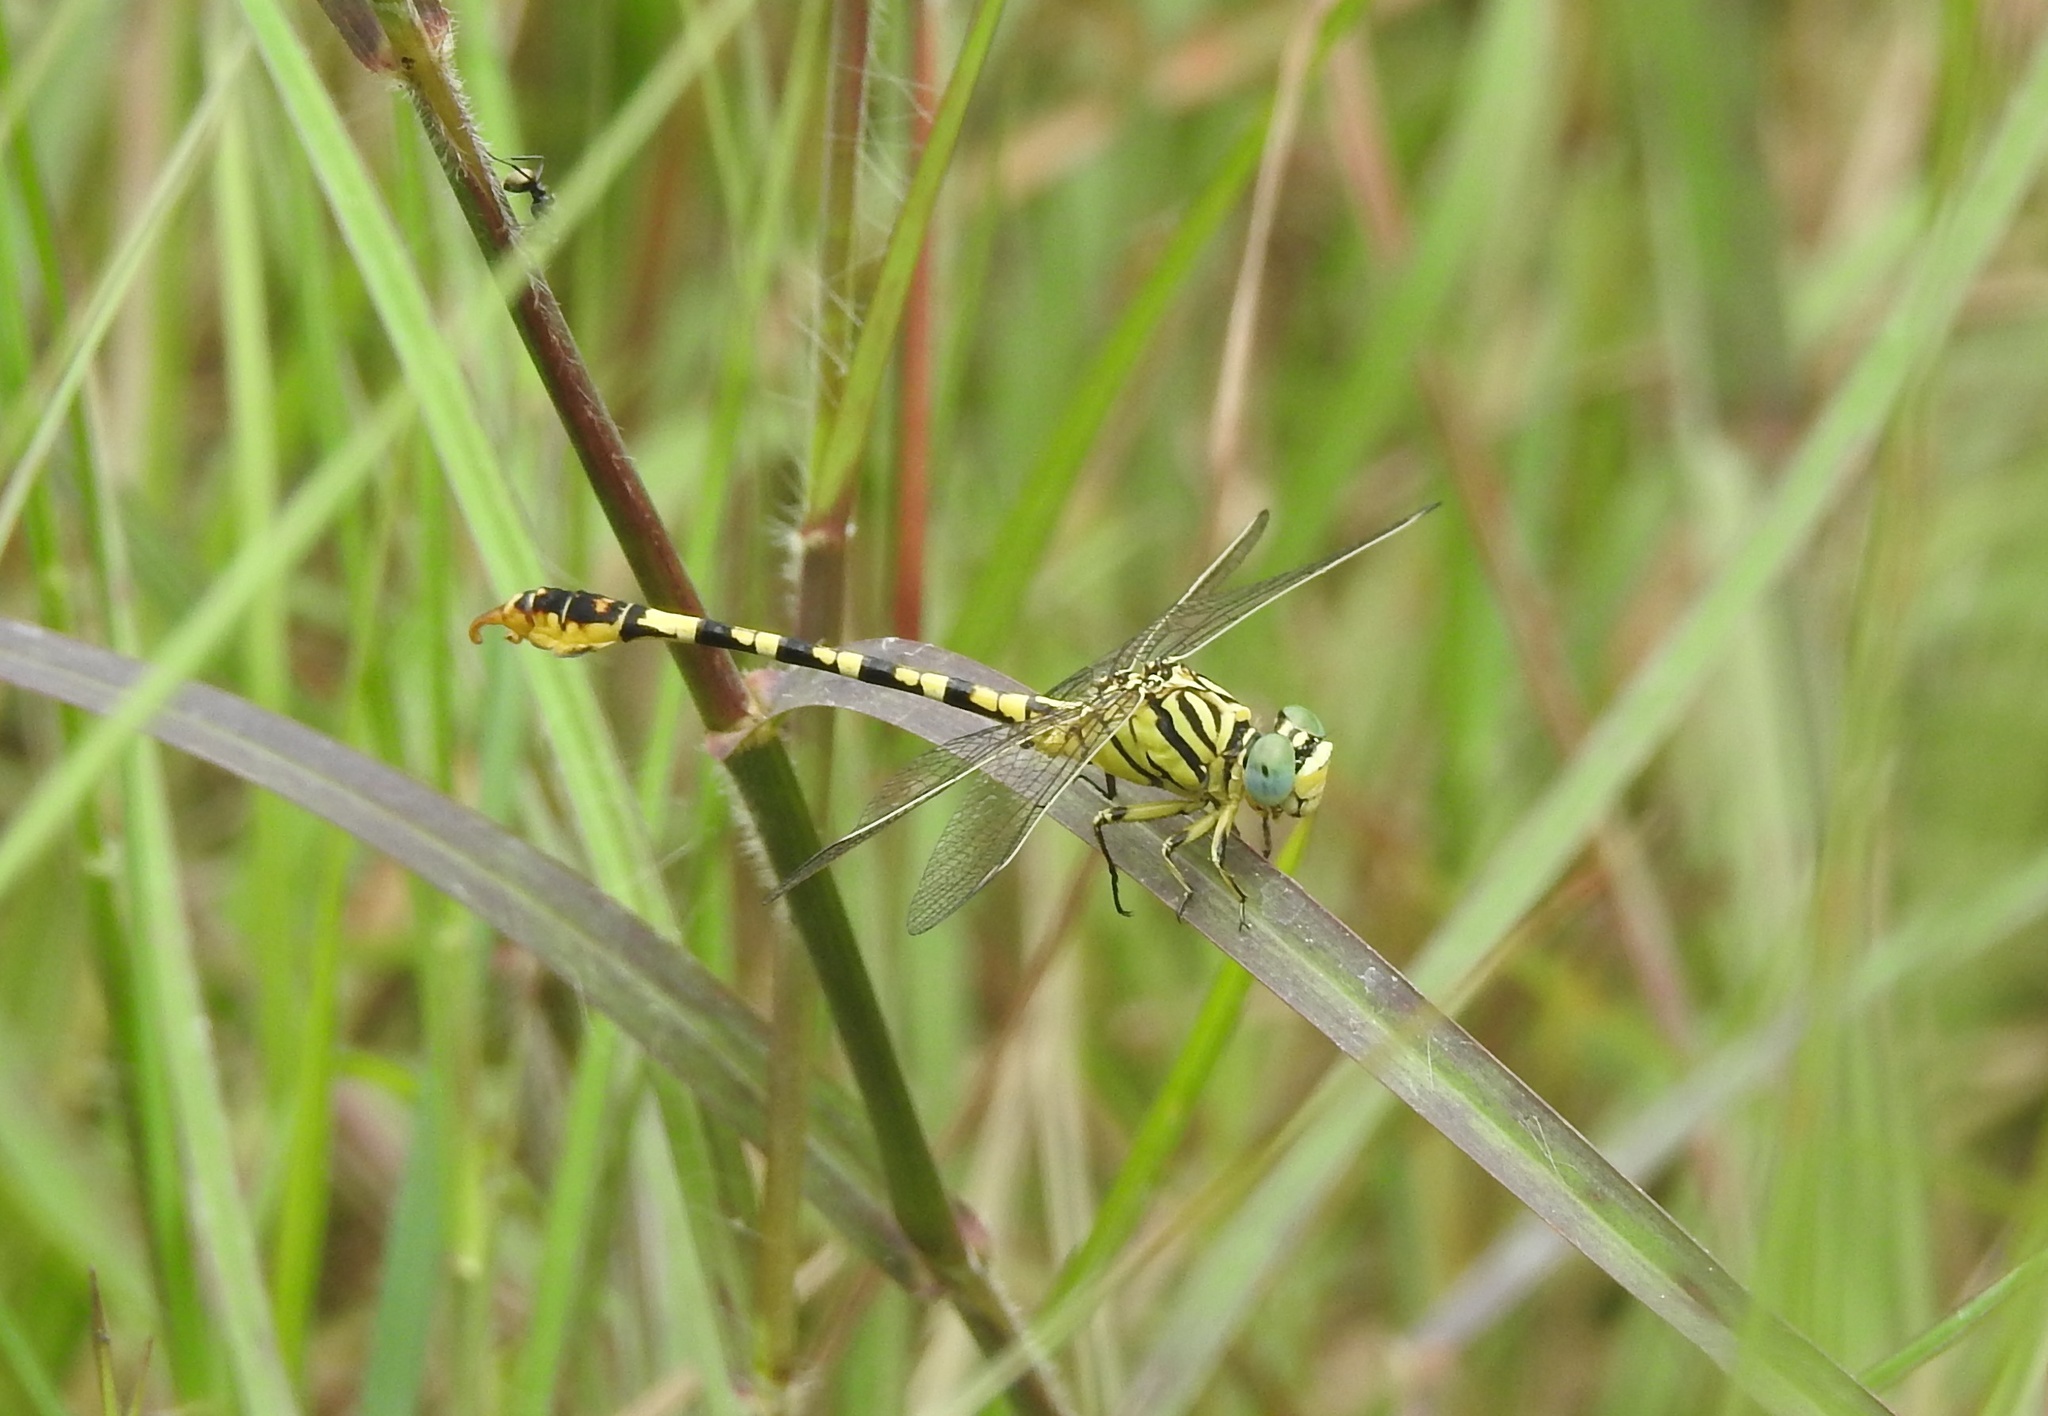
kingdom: Animalia
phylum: Arthropoda
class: Insecta
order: Odonata
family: Gomphidae
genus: Paragomphus
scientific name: Paragomphus lineatus
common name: Lined hooktail
